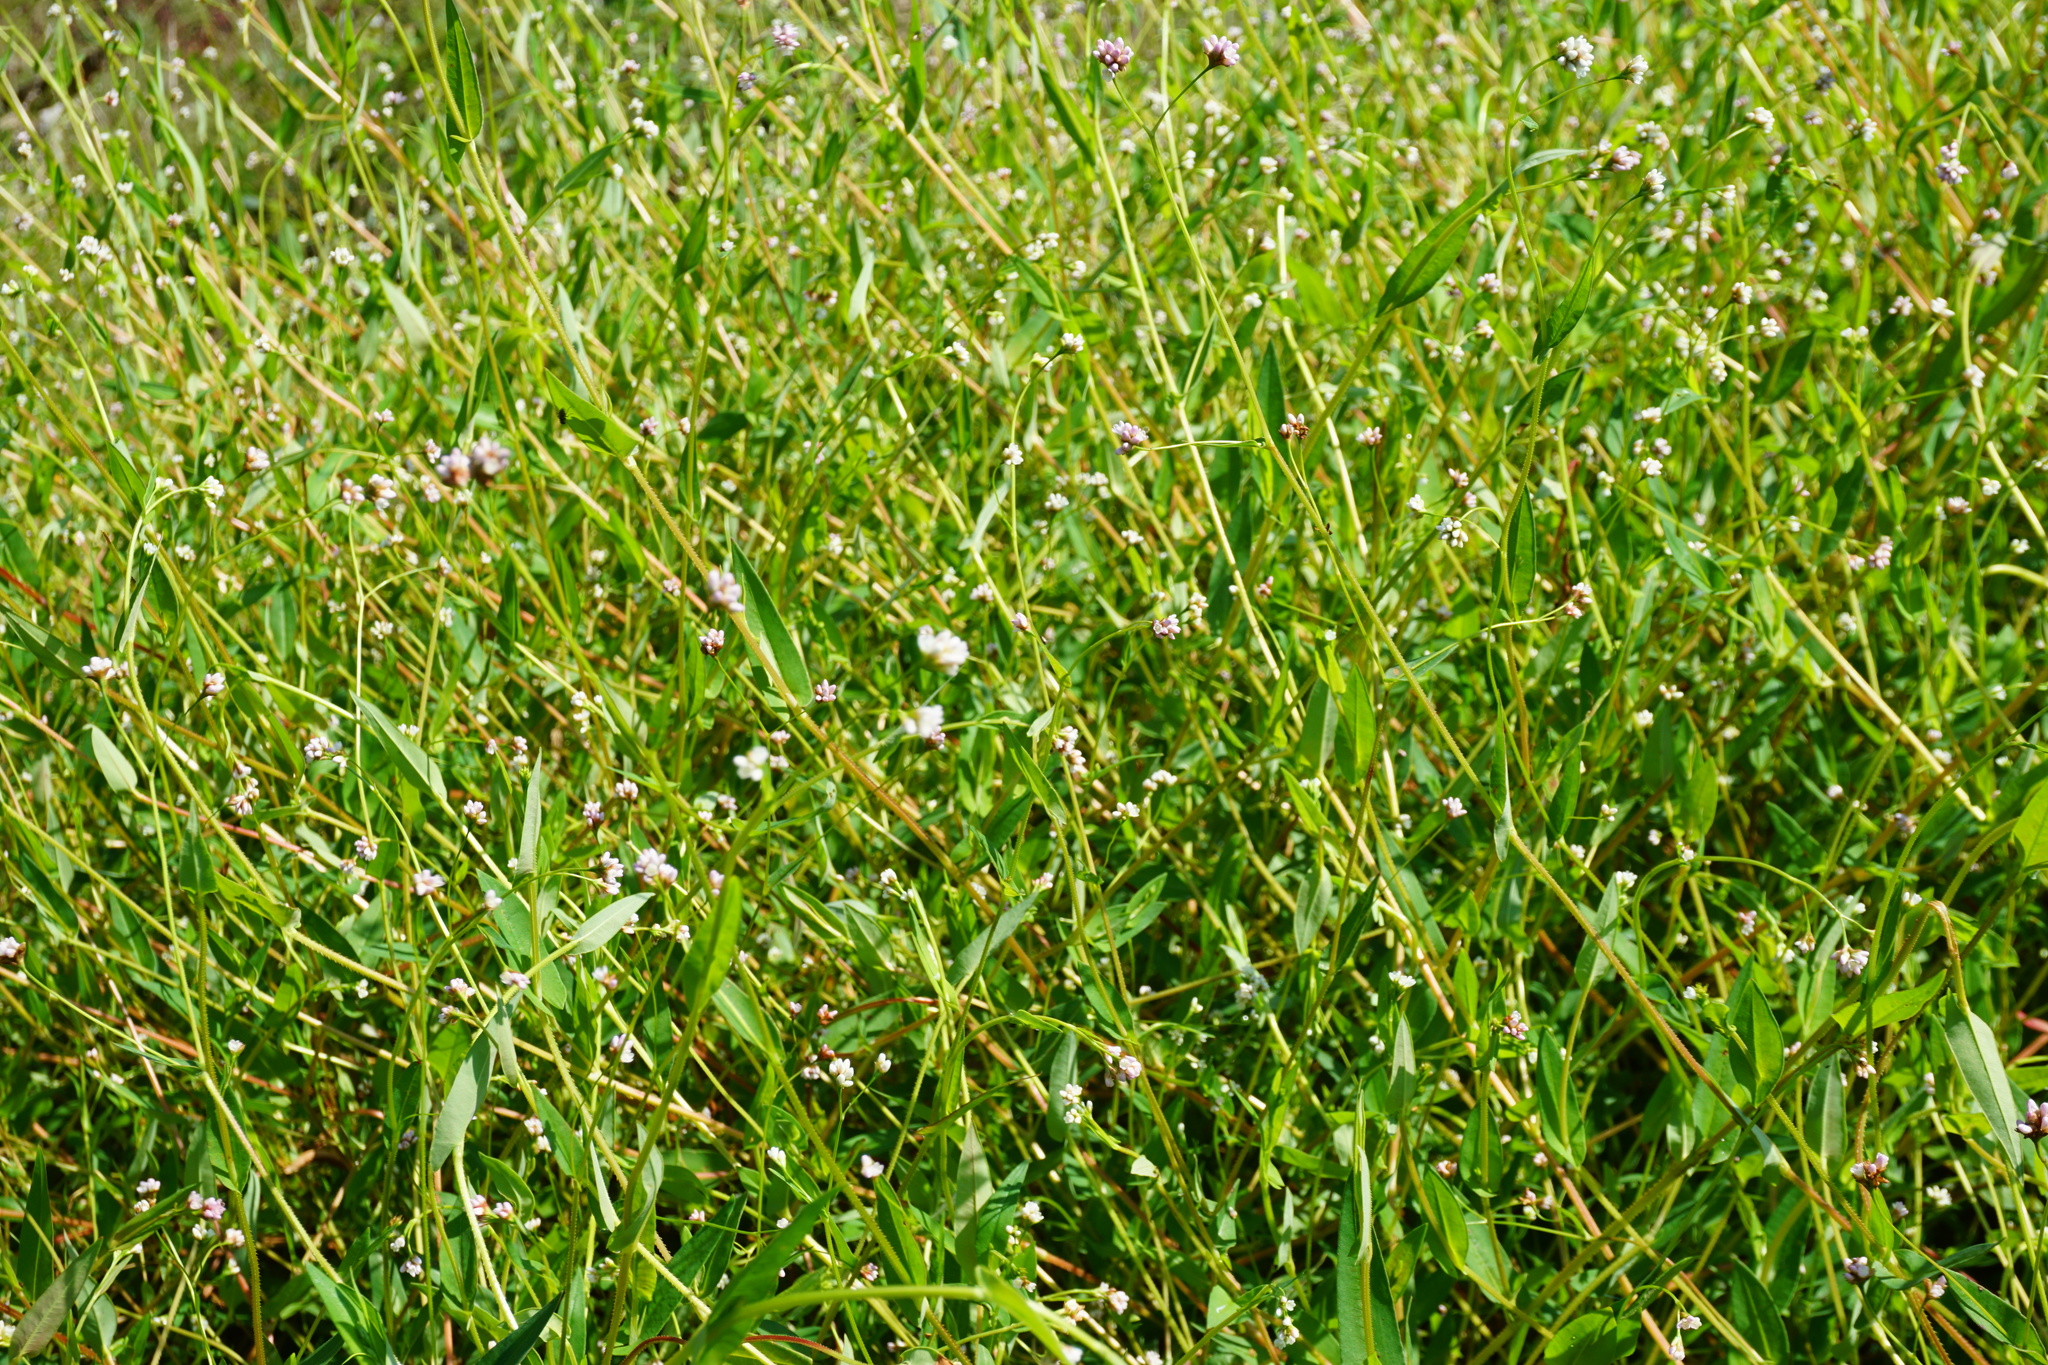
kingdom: Plantae
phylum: Tracheophyta
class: Magnoliopsida
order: Caryophyllales
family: Polygonaceae
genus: Persicaria
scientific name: Persicaria sagittata
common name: American tearthumb
